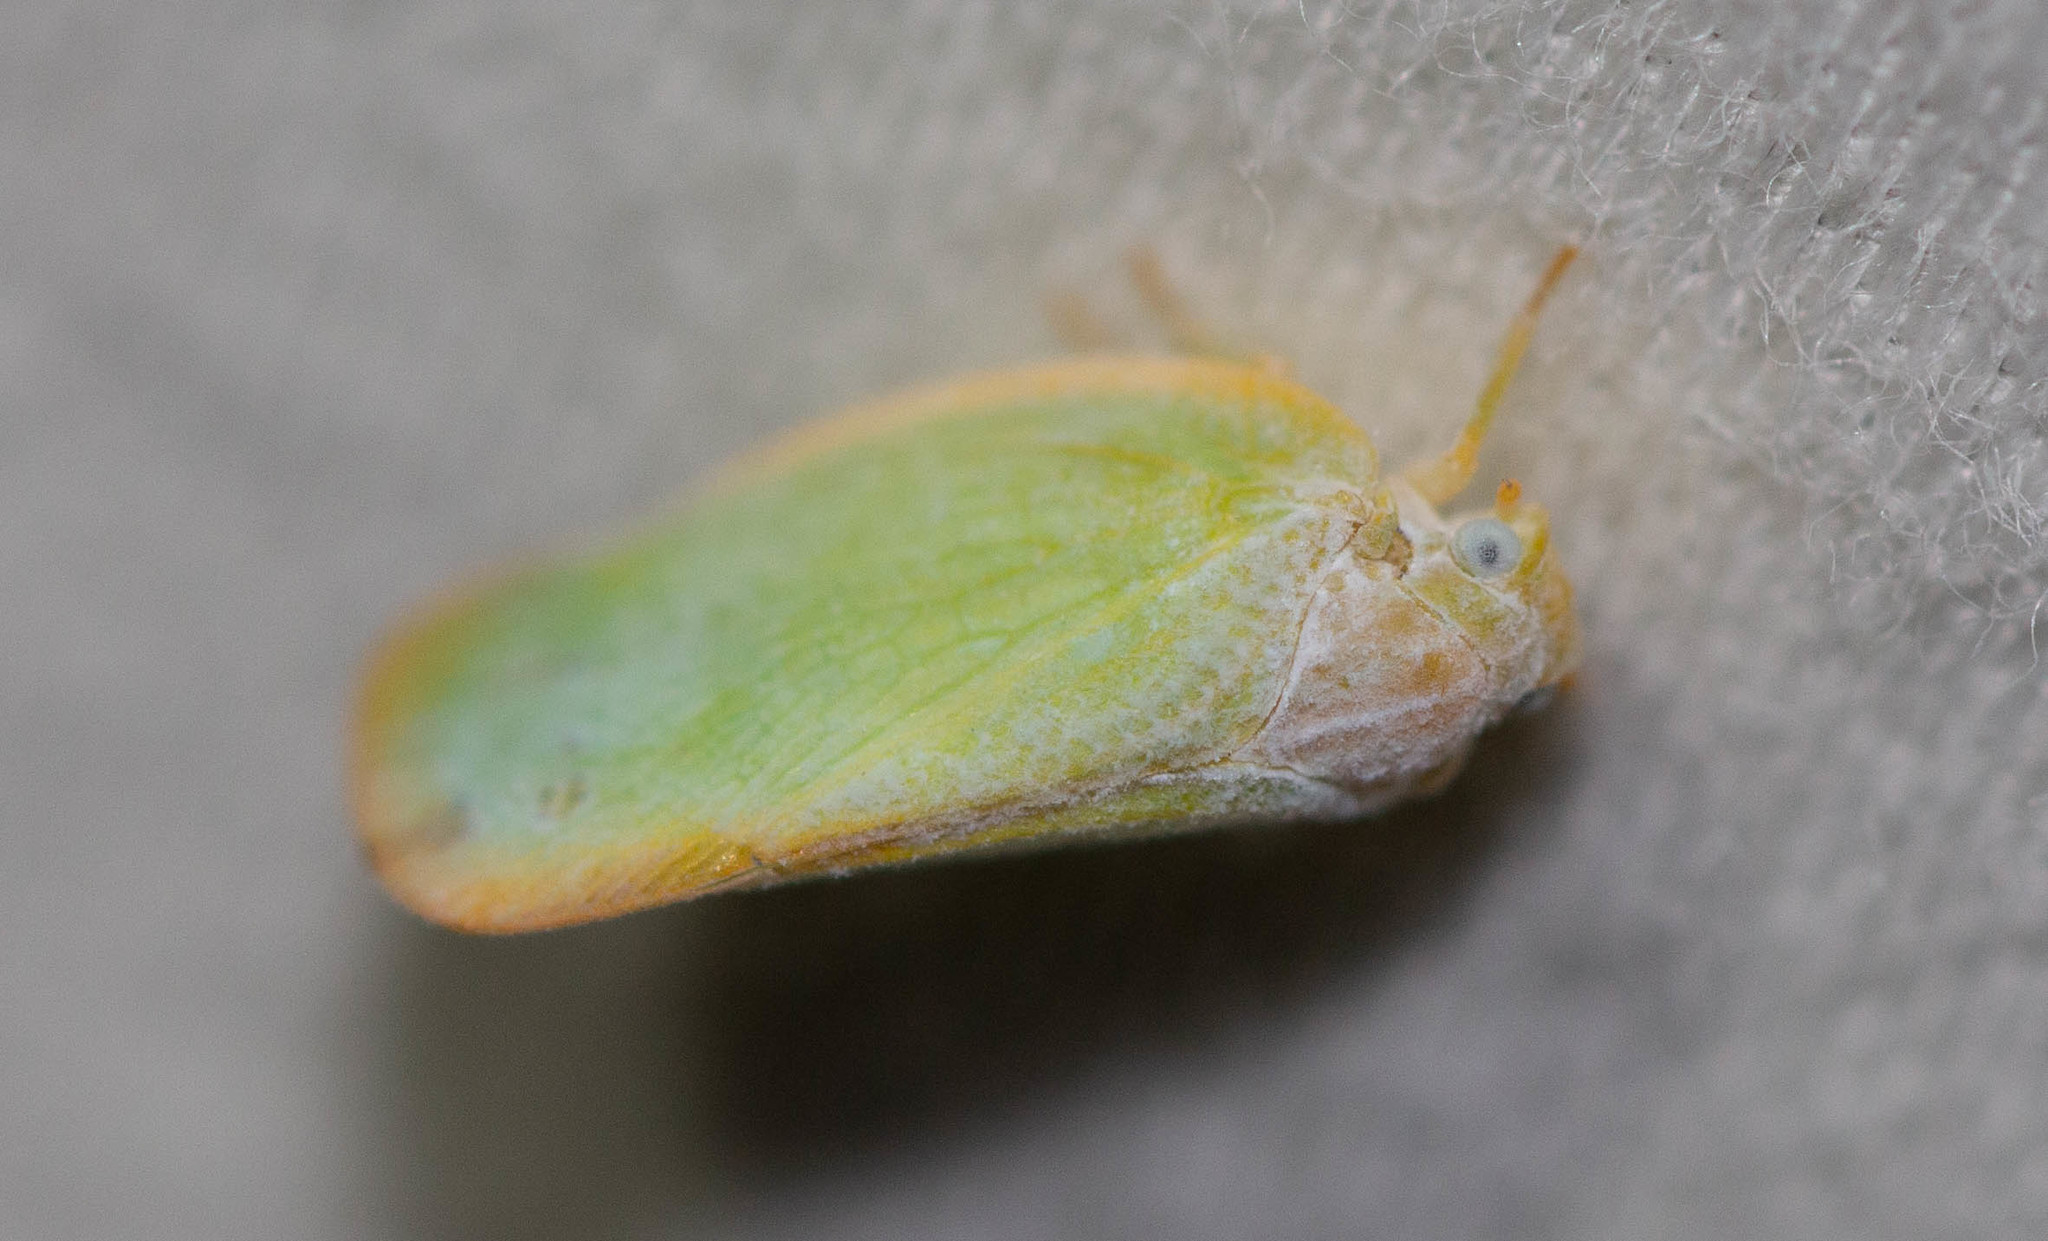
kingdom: Animalia
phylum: Arthropoda
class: Insecta
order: Hemiptera
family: Flatidae
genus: Ormenoides
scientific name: Ormenoides venusta
